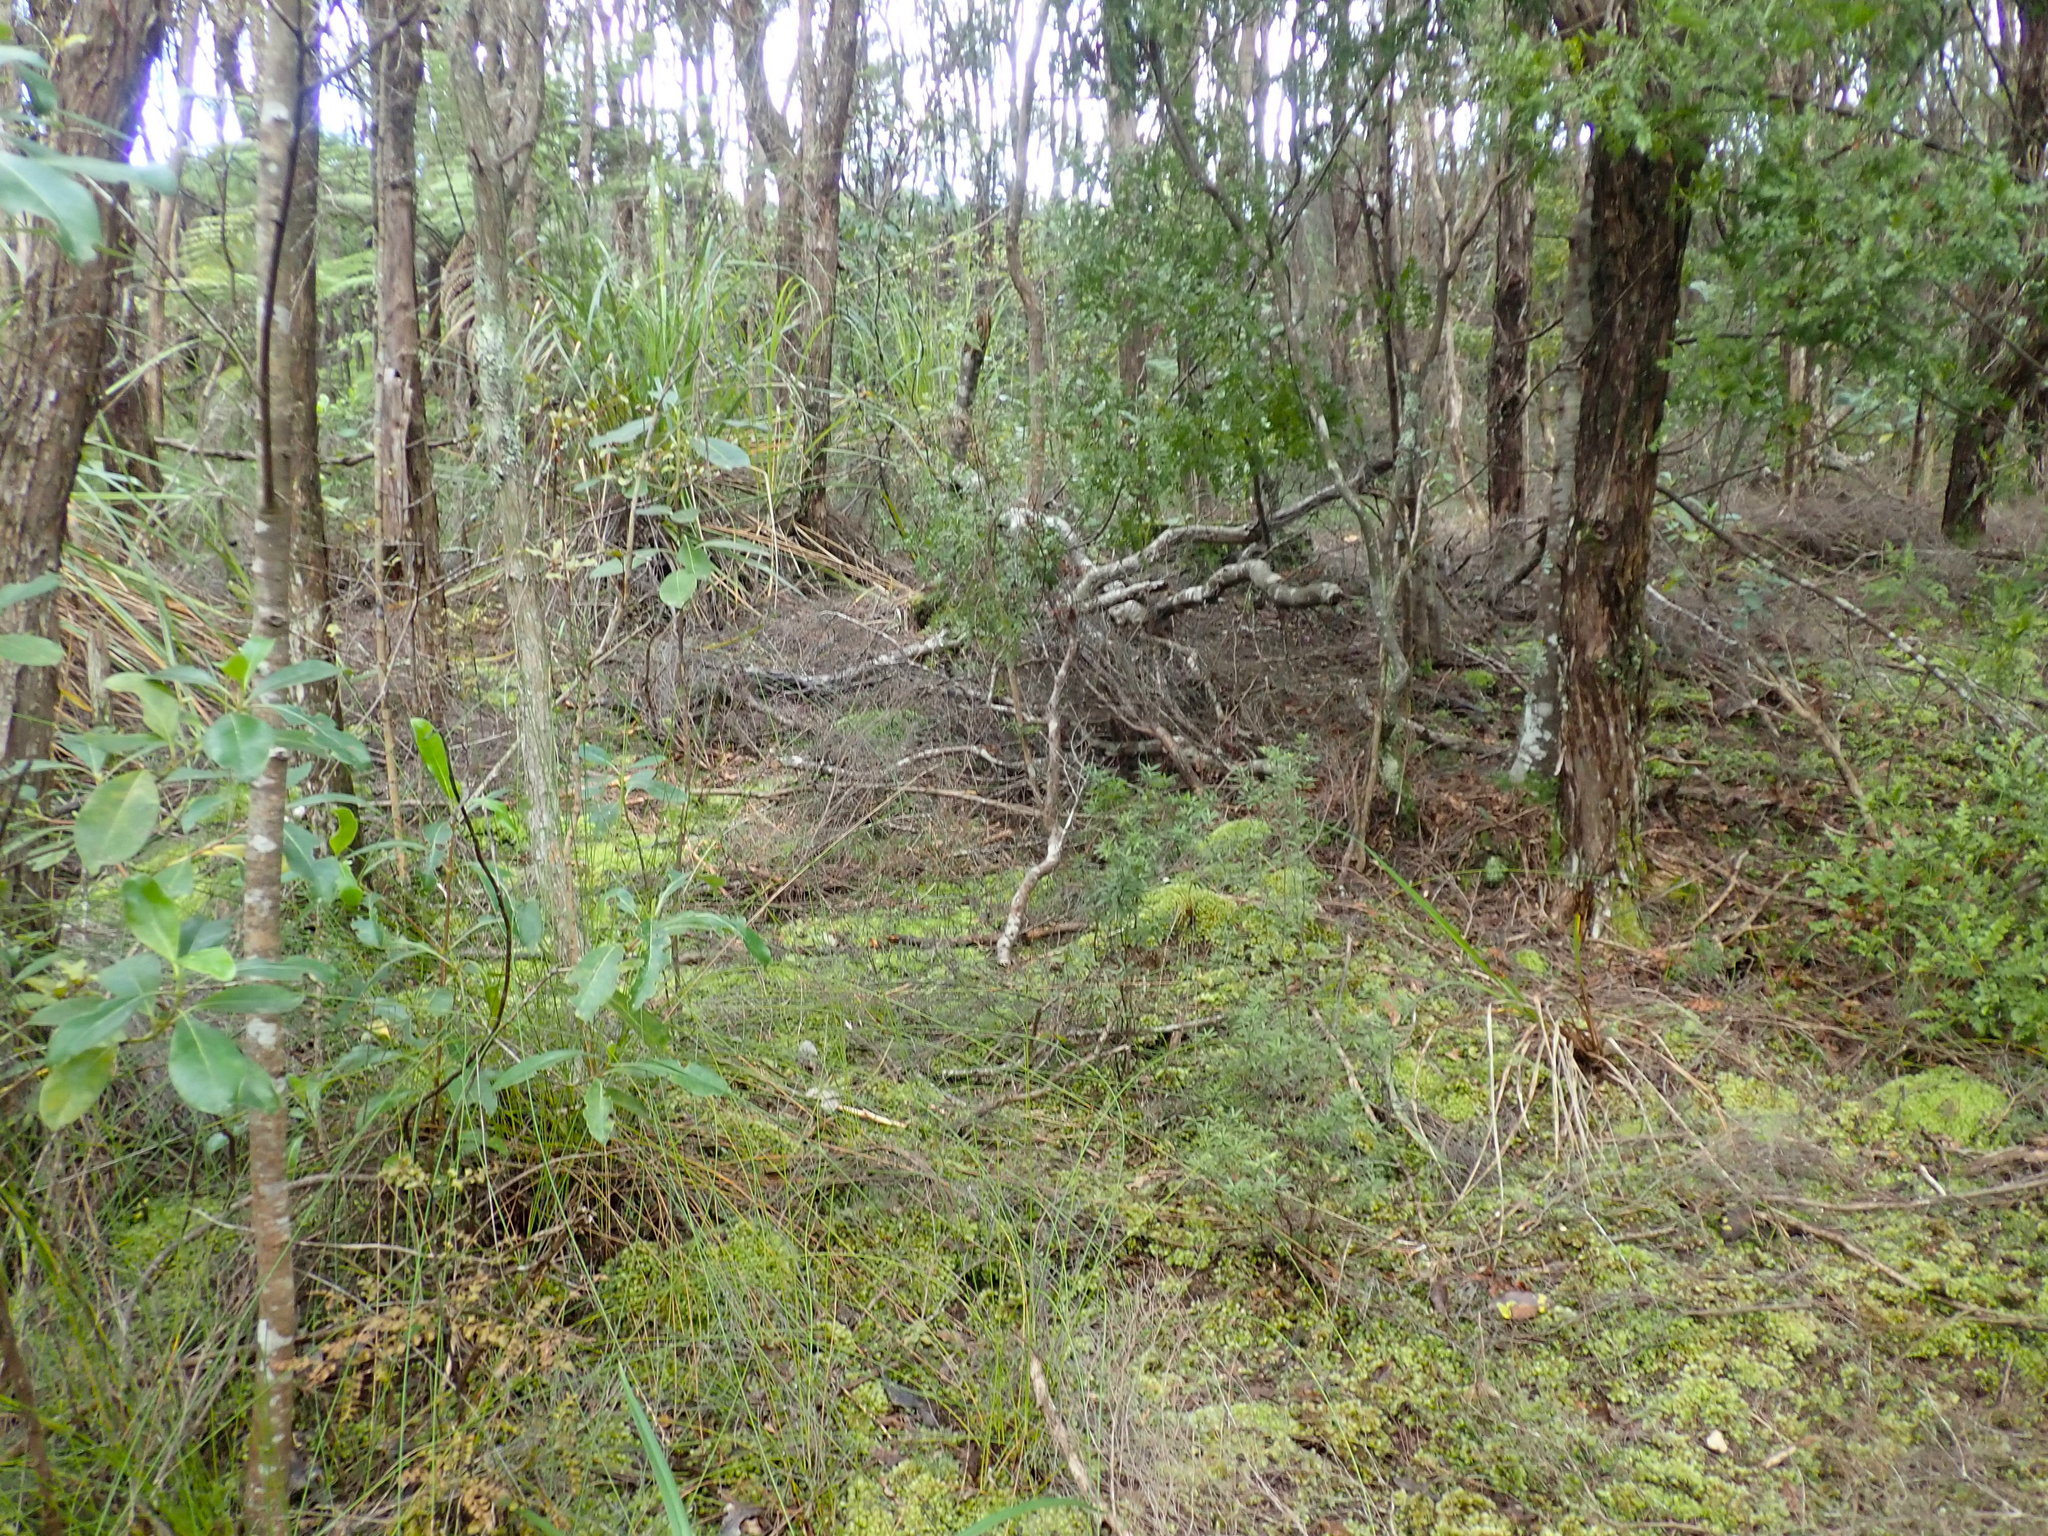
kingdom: Plantae
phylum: Tracheophyta
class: Pinopsida
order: Pinales
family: Phyllocladaceae
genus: Phyllocladus
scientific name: Phyllocladus trichomanoides
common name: Celery pine
